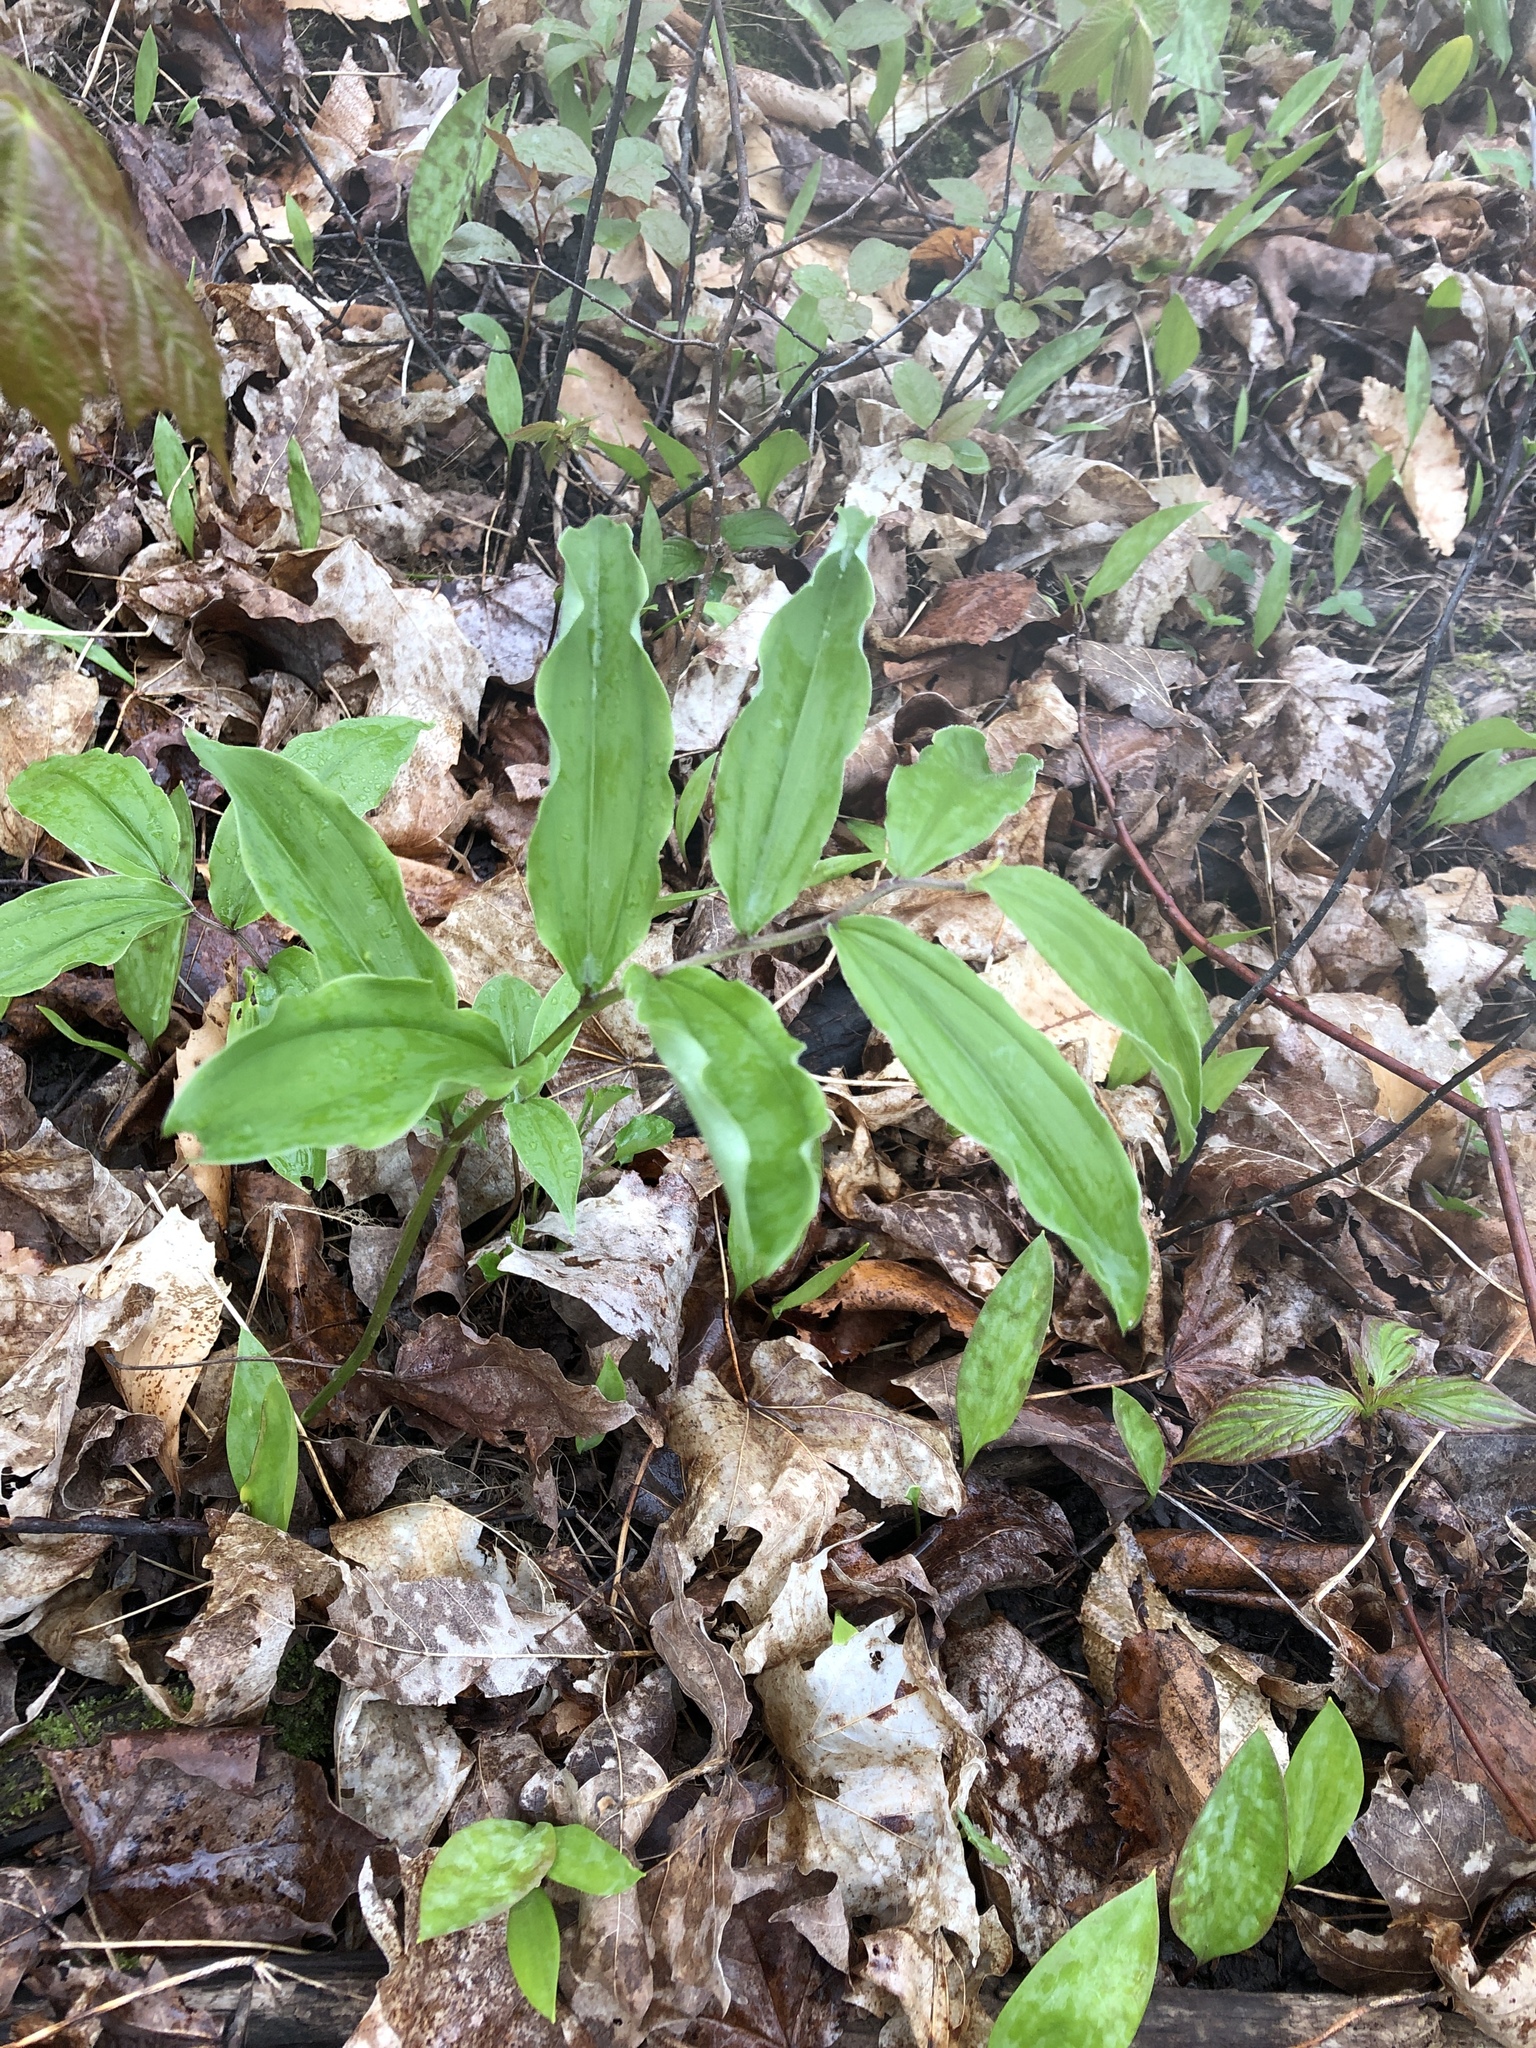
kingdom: Plantae
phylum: Tracheophyta
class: Liliopsida
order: Asparagales
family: Asparagaceae
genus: Maianthemum
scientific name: Maianthemum racemosum
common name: False spikenard
